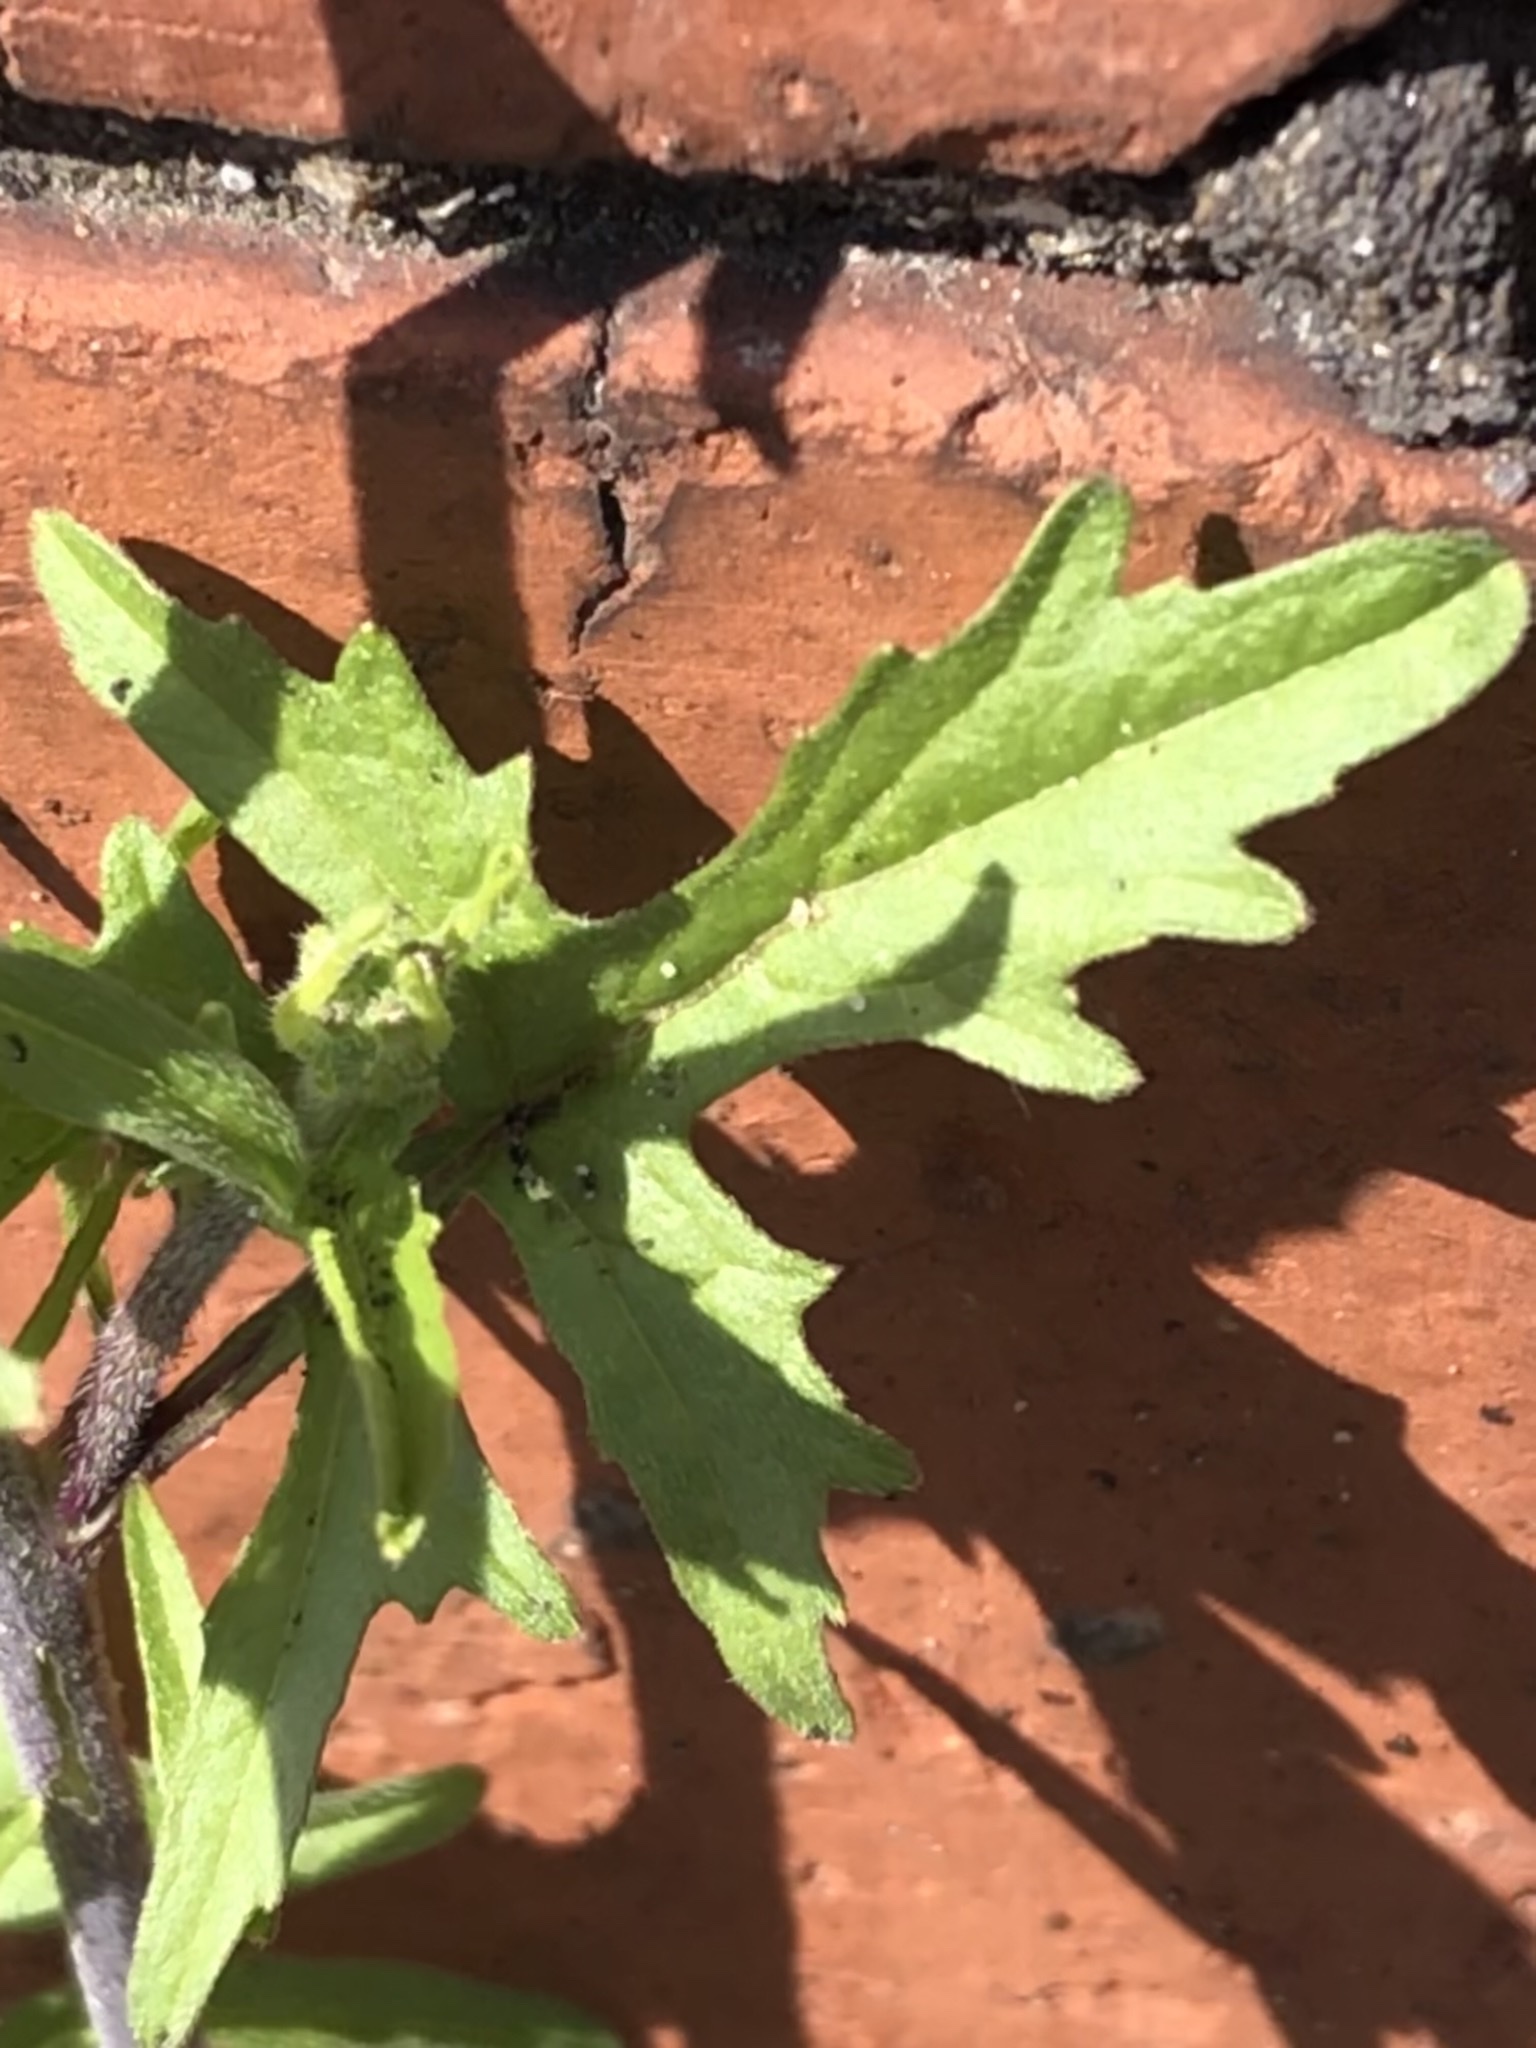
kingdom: Plantae
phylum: Tracheophyta
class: Magnoliopsida
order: Brassicales
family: Brassicaceae
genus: Sisymbrium
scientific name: Sisymbrium officinale
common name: Hedge mustard
